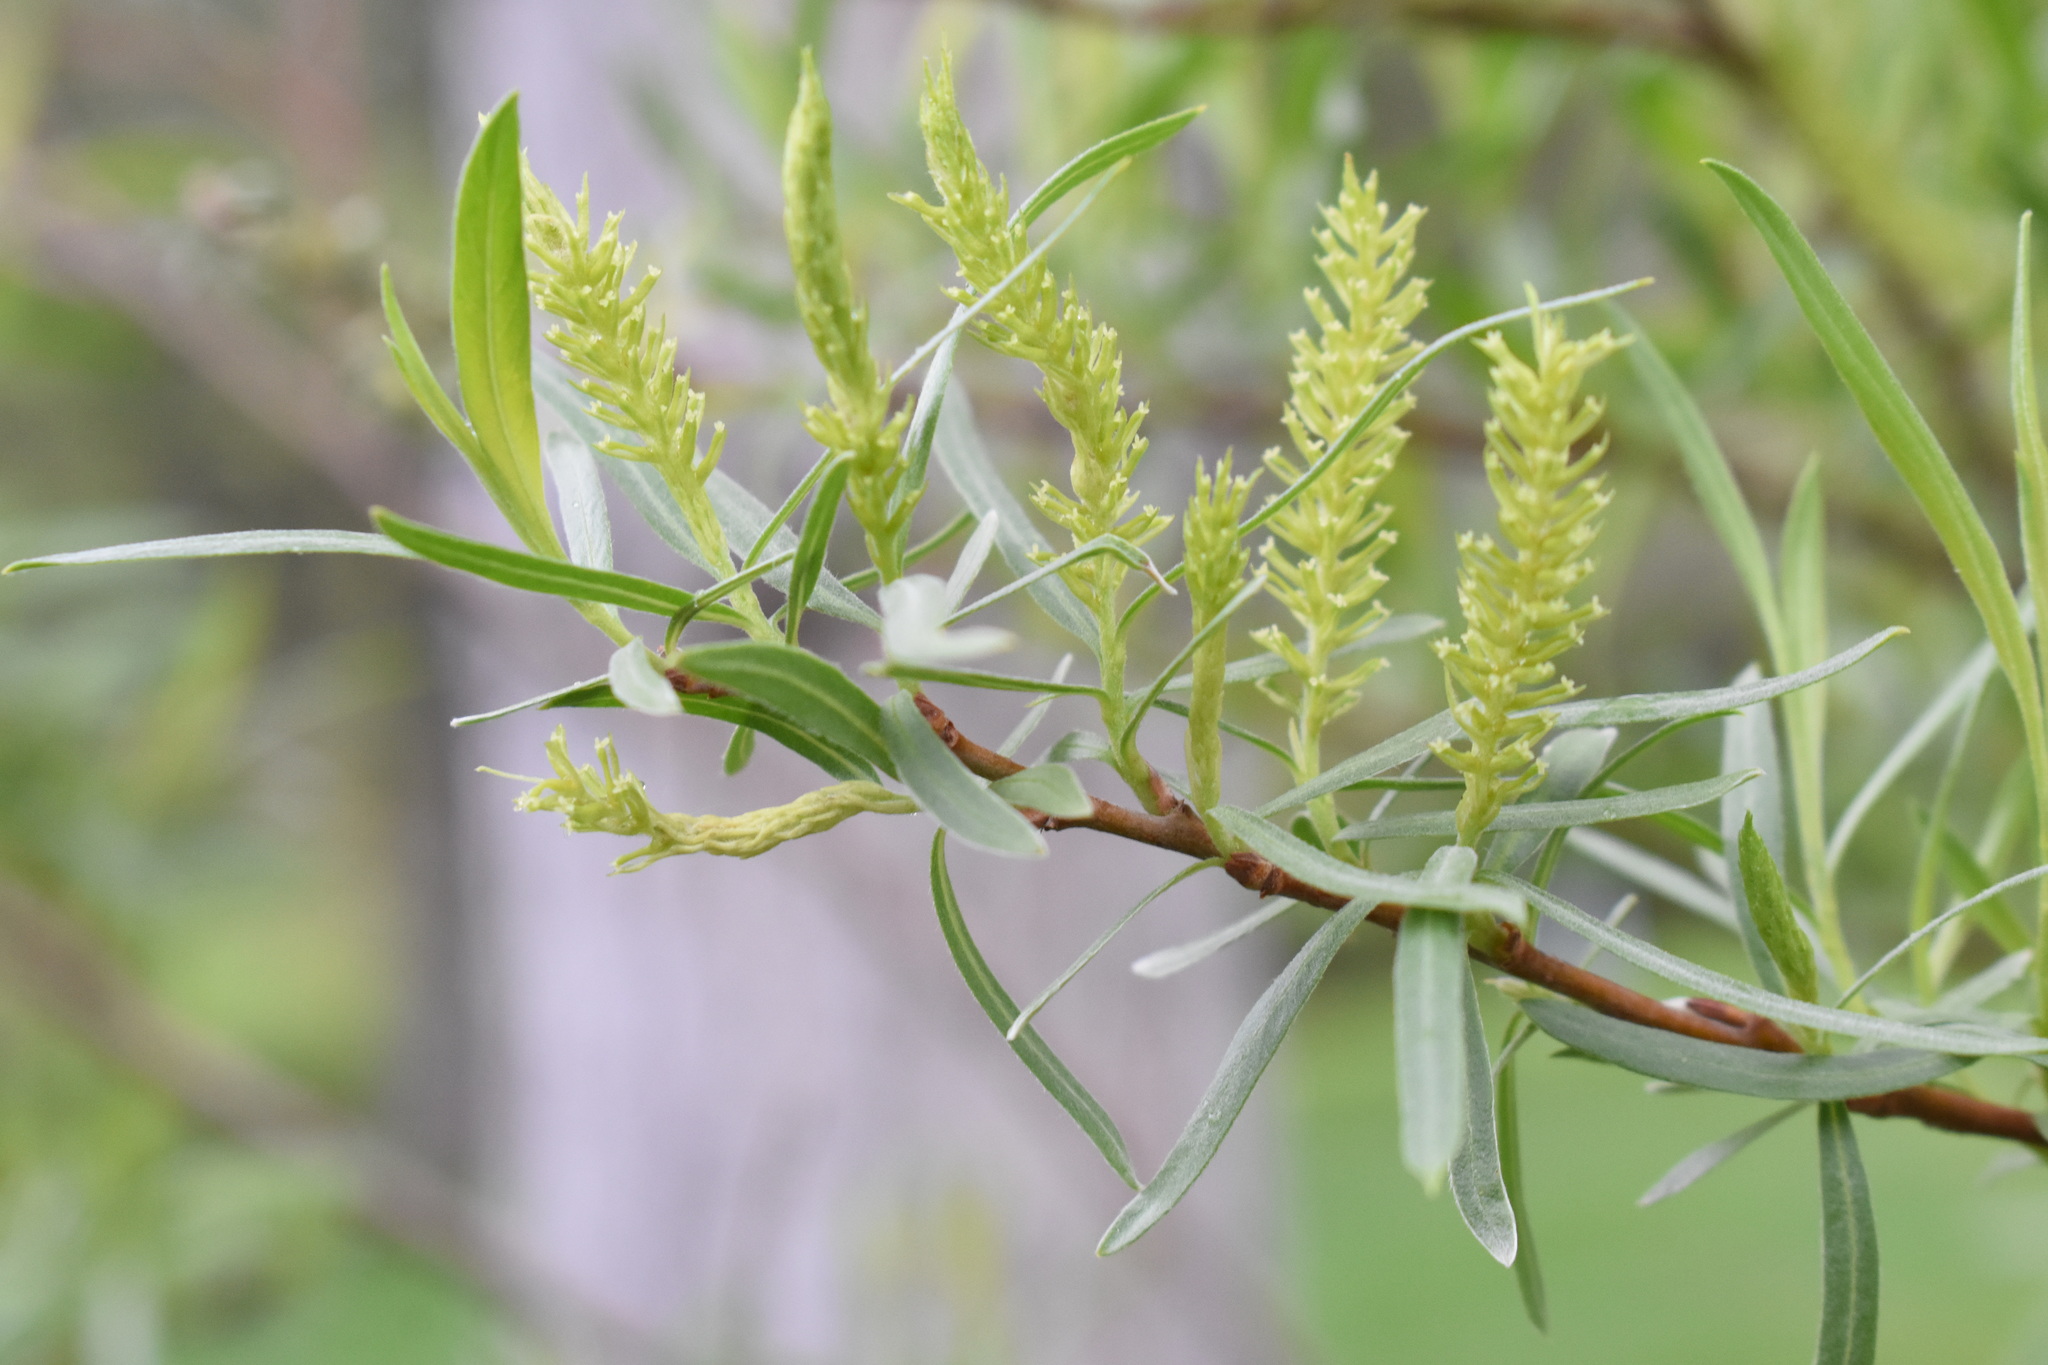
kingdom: Plantae
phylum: Tracheophyta
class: Magnoliopsida
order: Malpighiales
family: Salicaceae
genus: Salix
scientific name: Salix exigua
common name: Coyote willow
